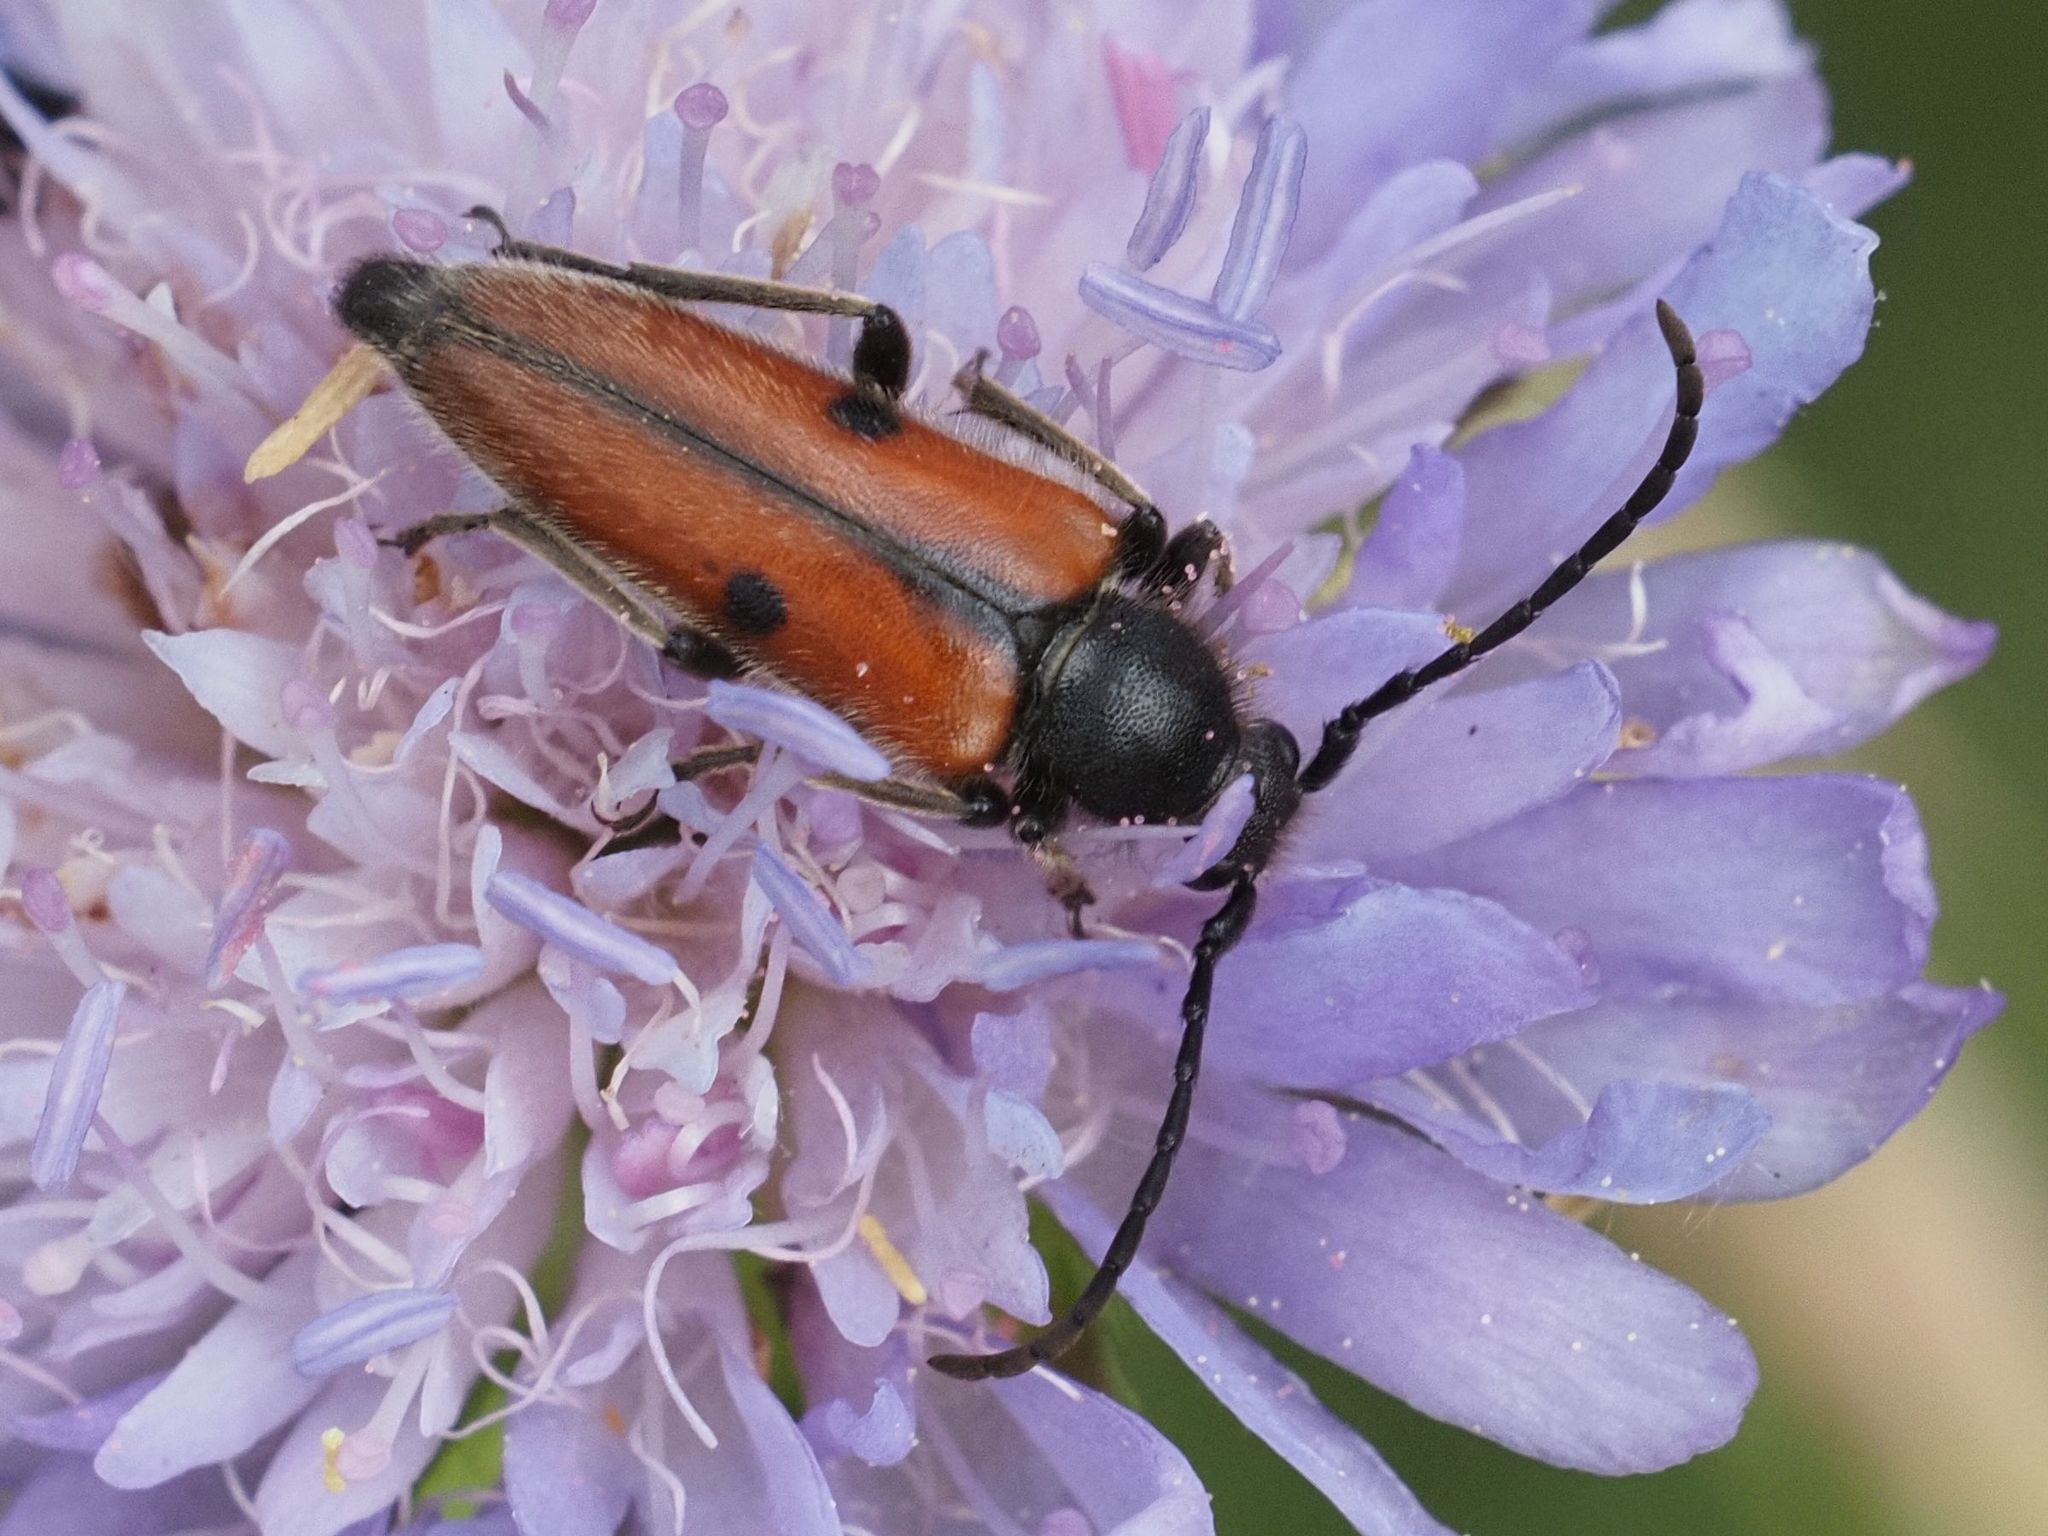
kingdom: Animalia
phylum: Arthropoda
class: Insecta
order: Coleoptera
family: Cerambycidae
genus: Vadonia
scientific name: Vadonia unipunctata
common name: Long-horned beetle
